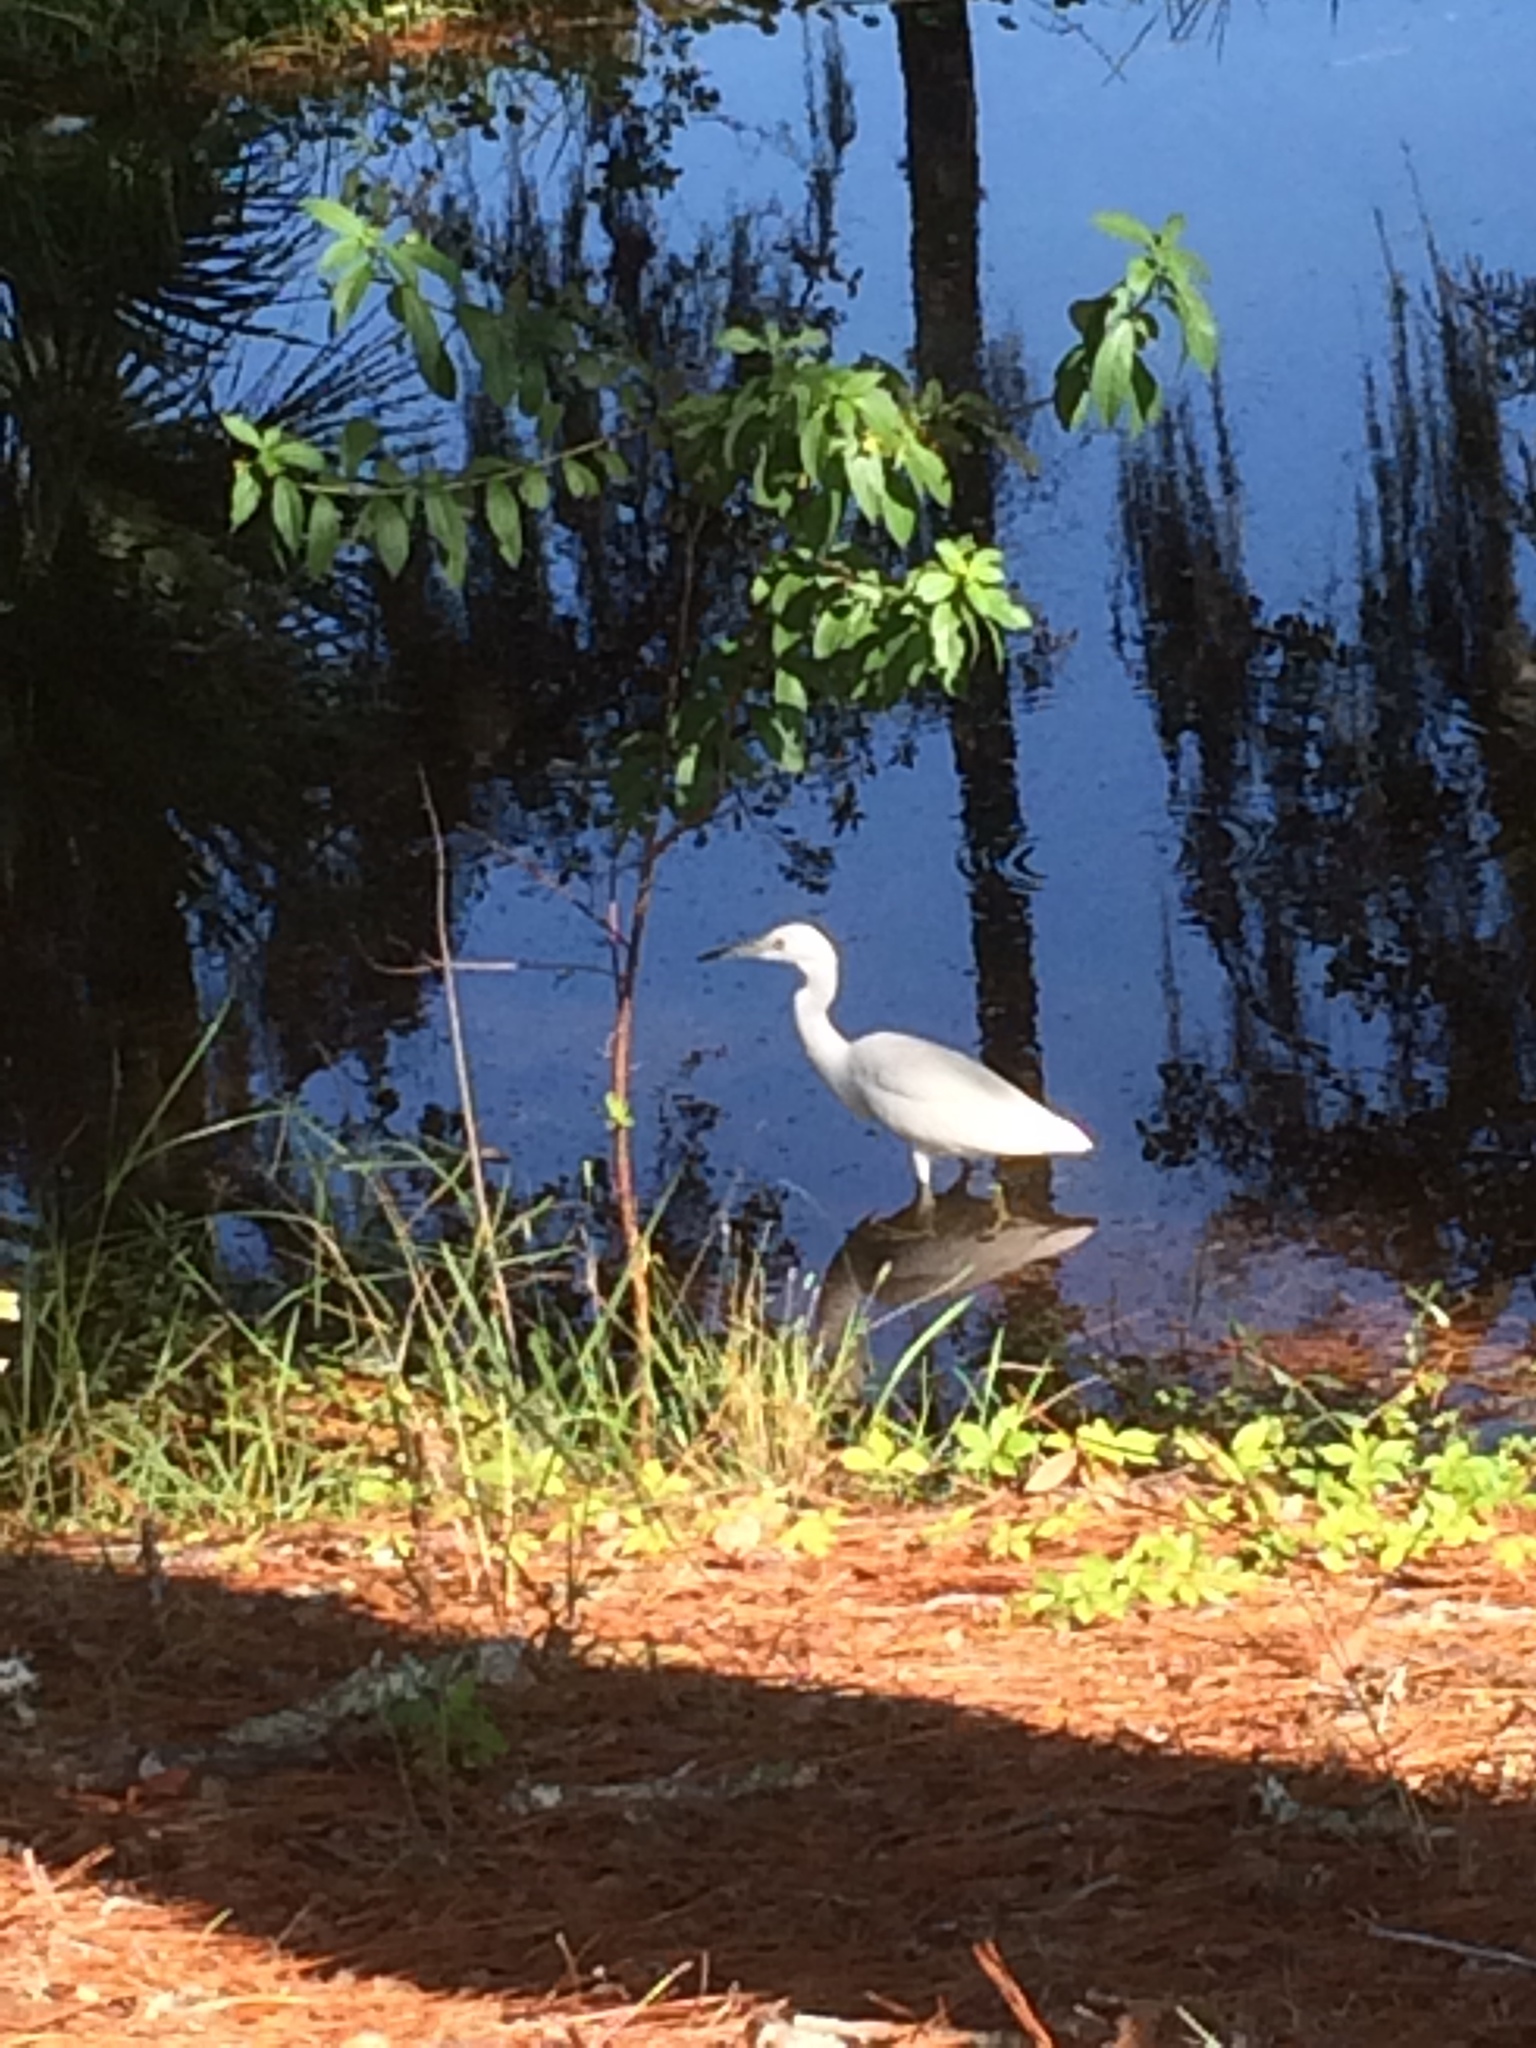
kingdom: Animalia
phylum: Chordata
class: Aves
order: Pelecaniformes
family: Ardeidae
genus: Egretta
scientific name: Egretta caerulea
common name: Little blue heron
